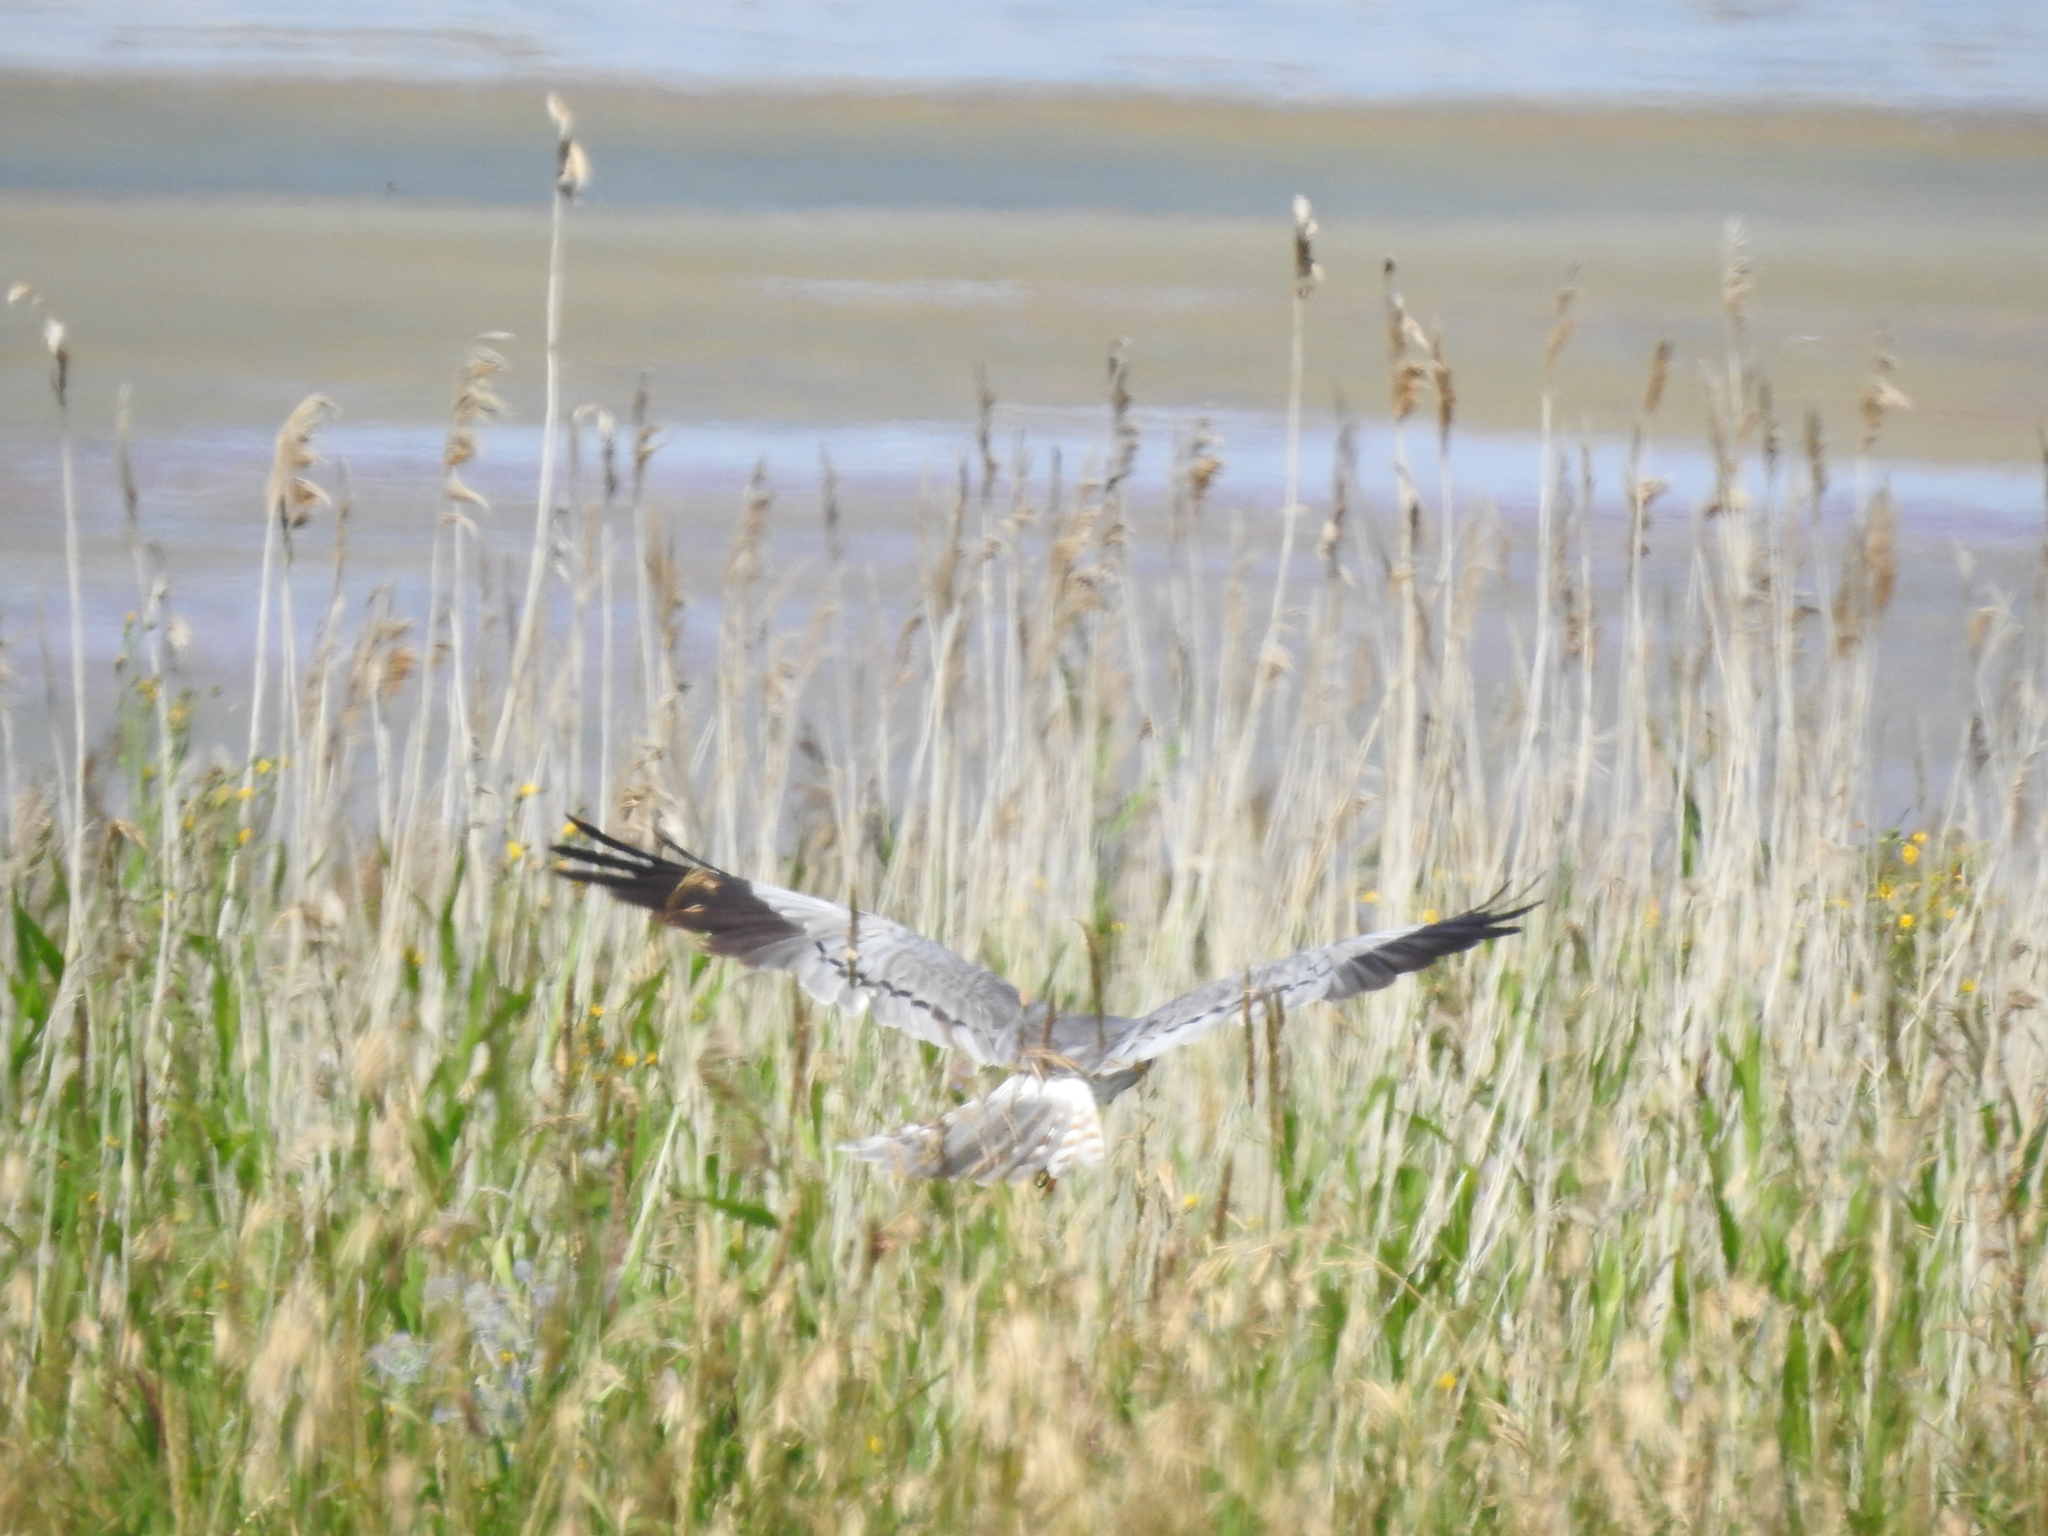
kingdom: Animalia
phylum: Chordata
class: Aves
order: Accipitriformes
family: Accipitridae
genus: Circus
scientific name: Circus pygargus
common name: Montagu's harrier
